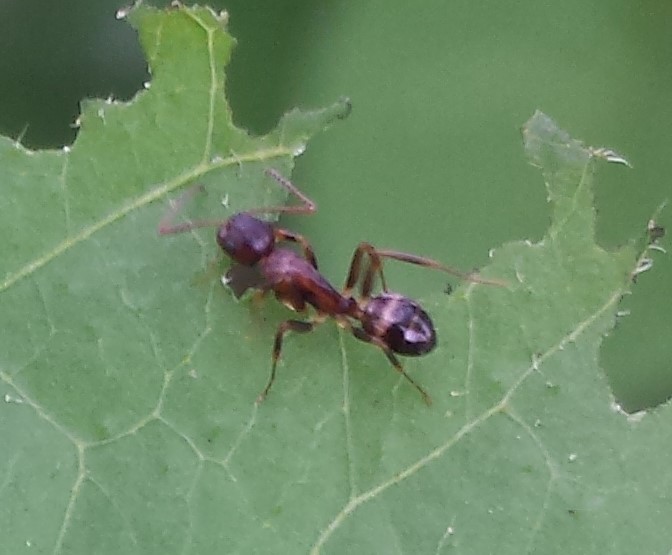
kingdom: Animalia
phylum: Arthropoda
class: Insecta
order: Hymenoptera
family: Formicidae
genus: Camponotus
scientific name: Camponotus subbarbatus
